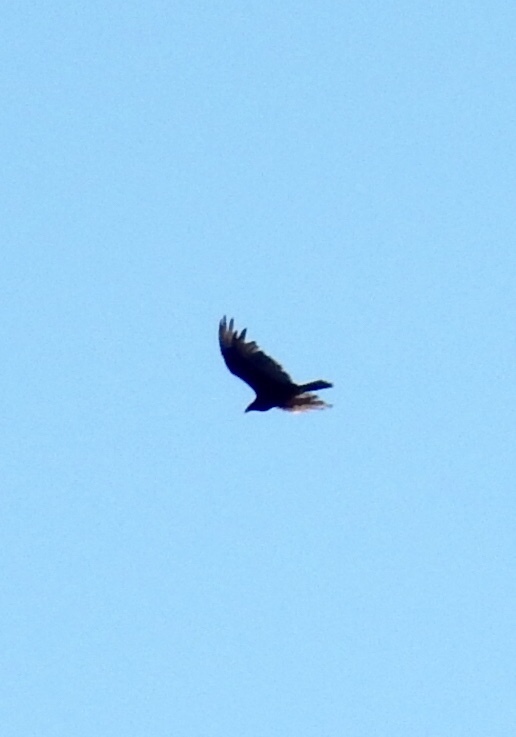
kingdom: Animalia
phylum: Chordata
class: Aves
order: Accipitriformes
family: Cathartidae
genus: Cathartes
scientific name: Cathartes aura
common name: Turkey vulture
